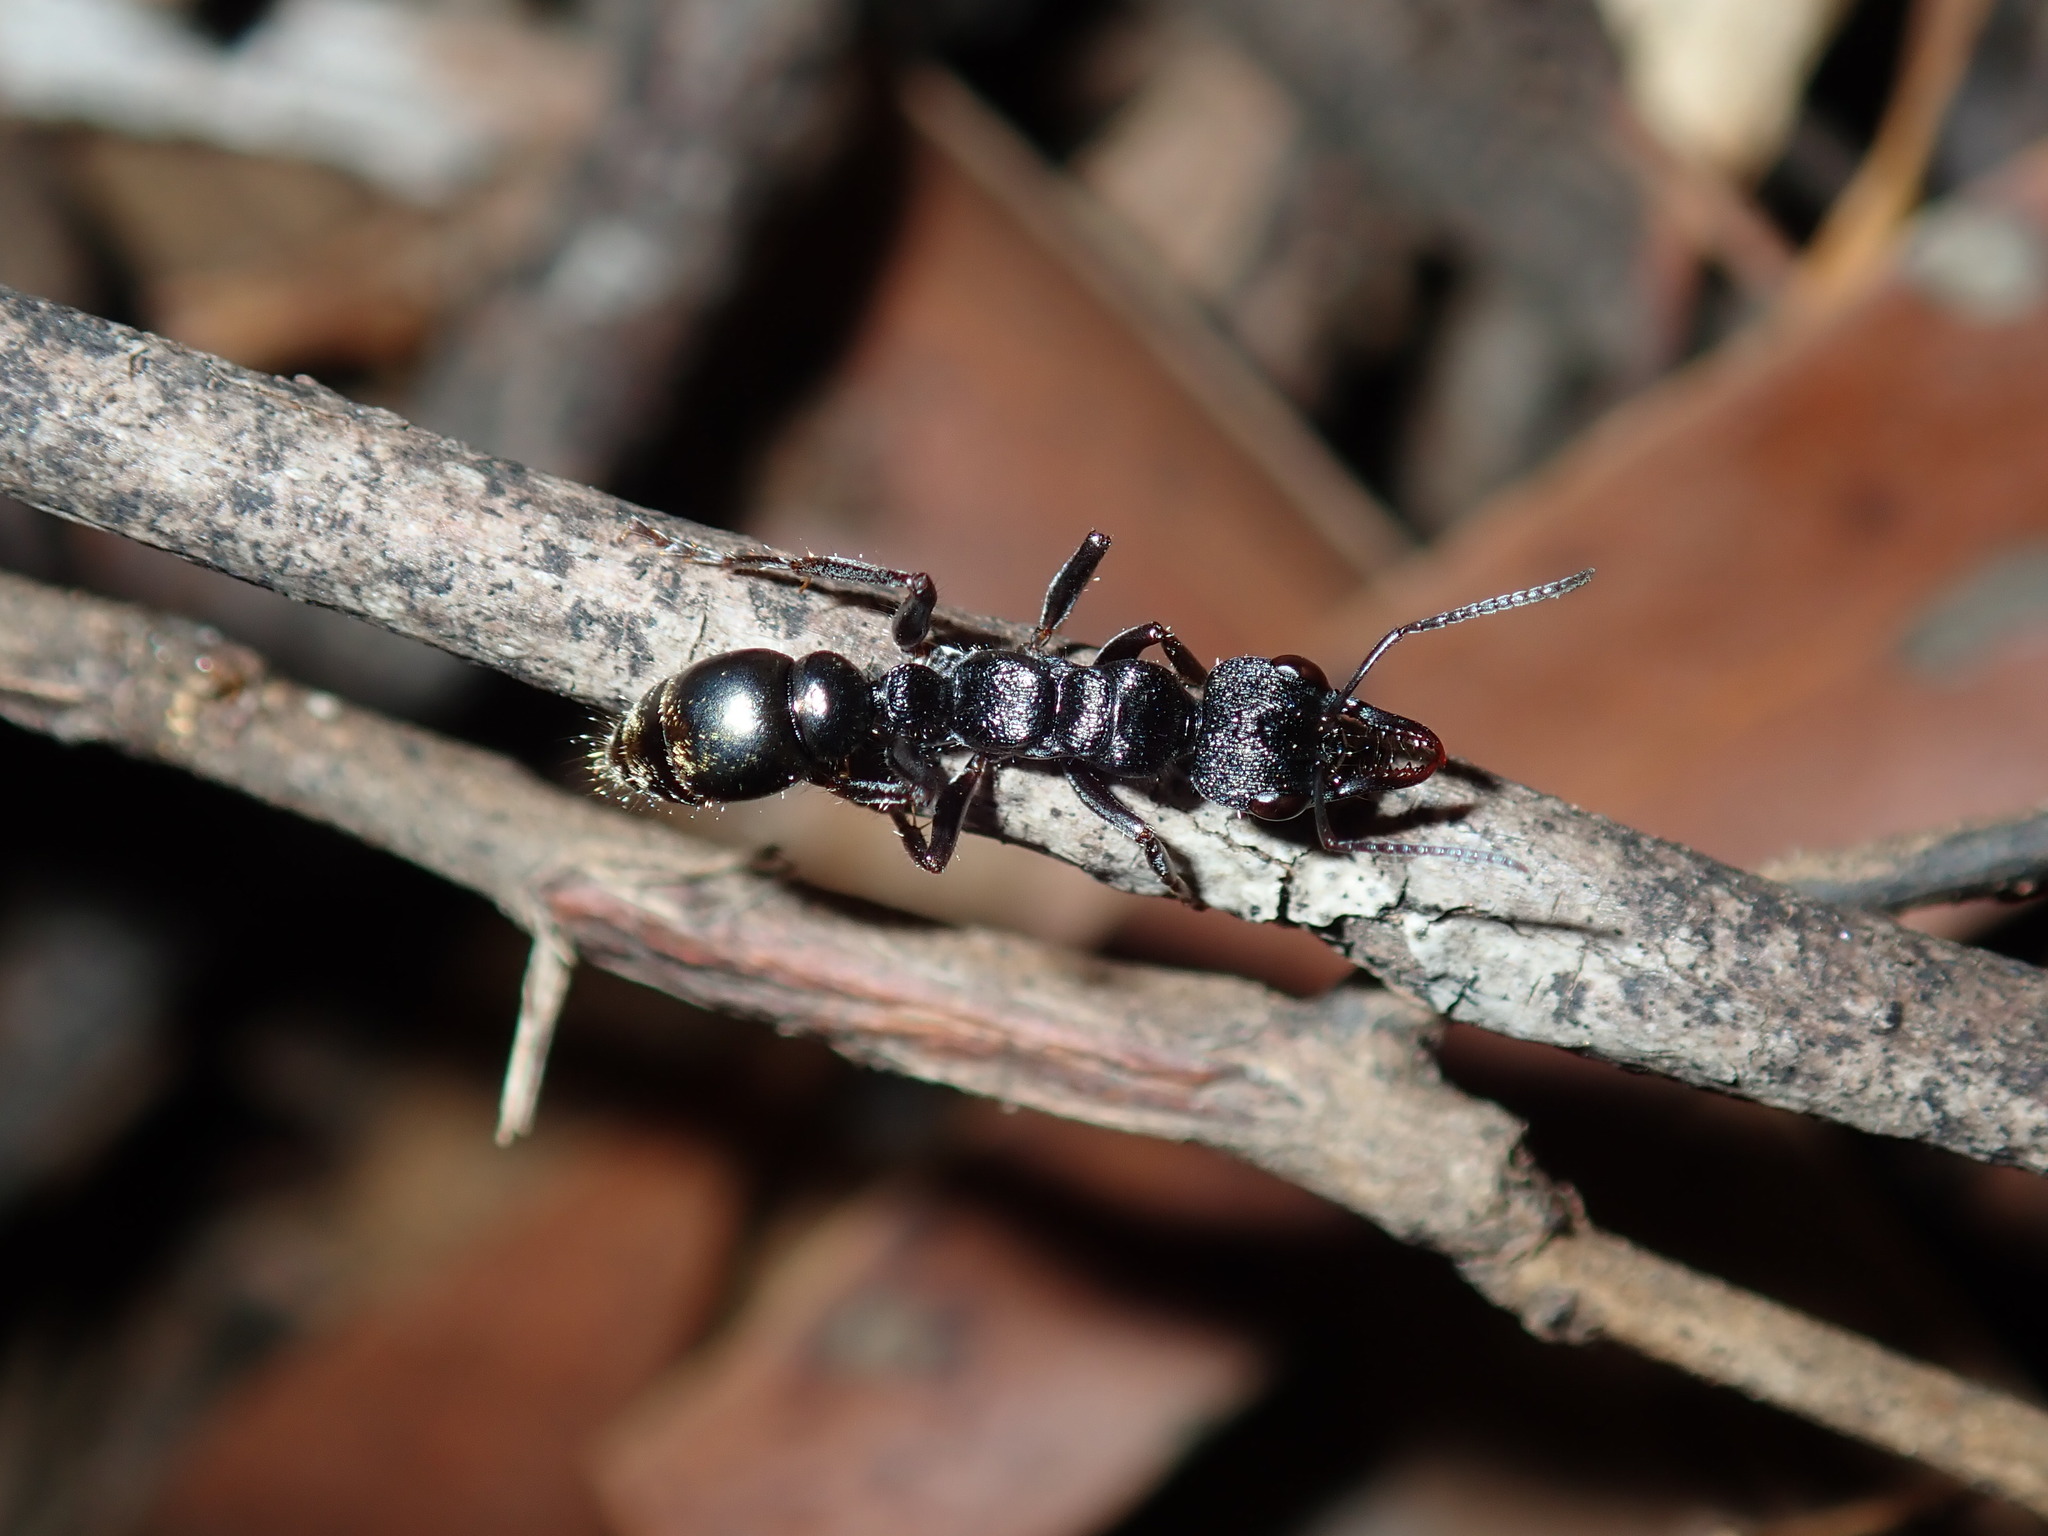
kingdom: Animalia
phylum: Arthropoda
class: Insecta
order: Hymenoptera
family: Formicidae
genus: Myrmecia
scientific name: Myrmecia queenslandica
